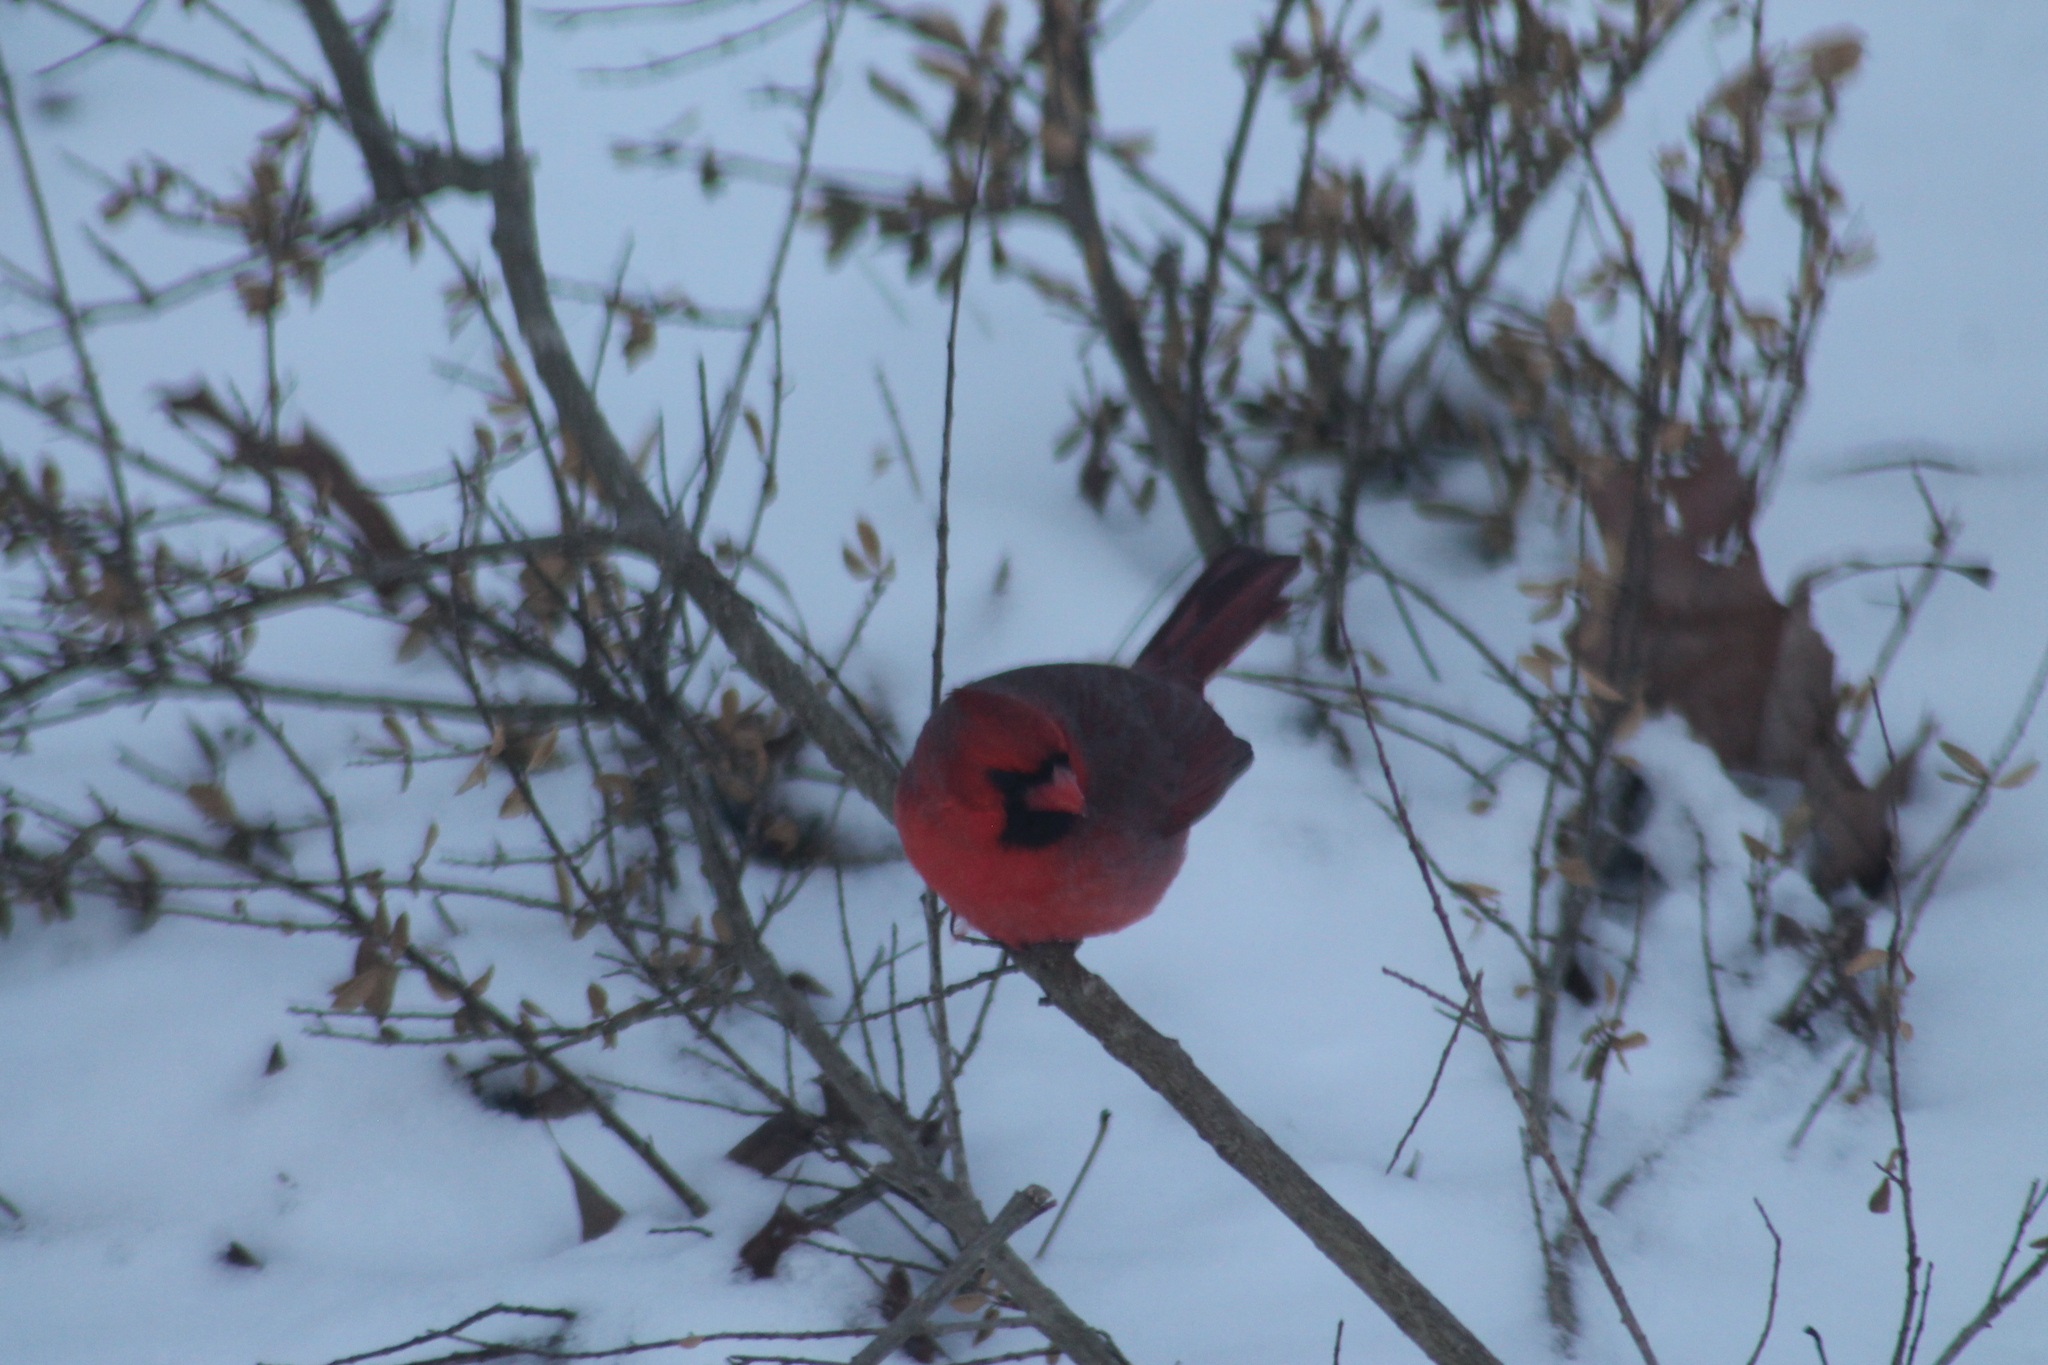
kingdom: Animalia
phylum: Chordata
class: Aves
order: Passeriformes
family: Cardinalidae
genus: Cardinalis
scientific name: Cardinalis cardinalis
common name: Northern cardinal
